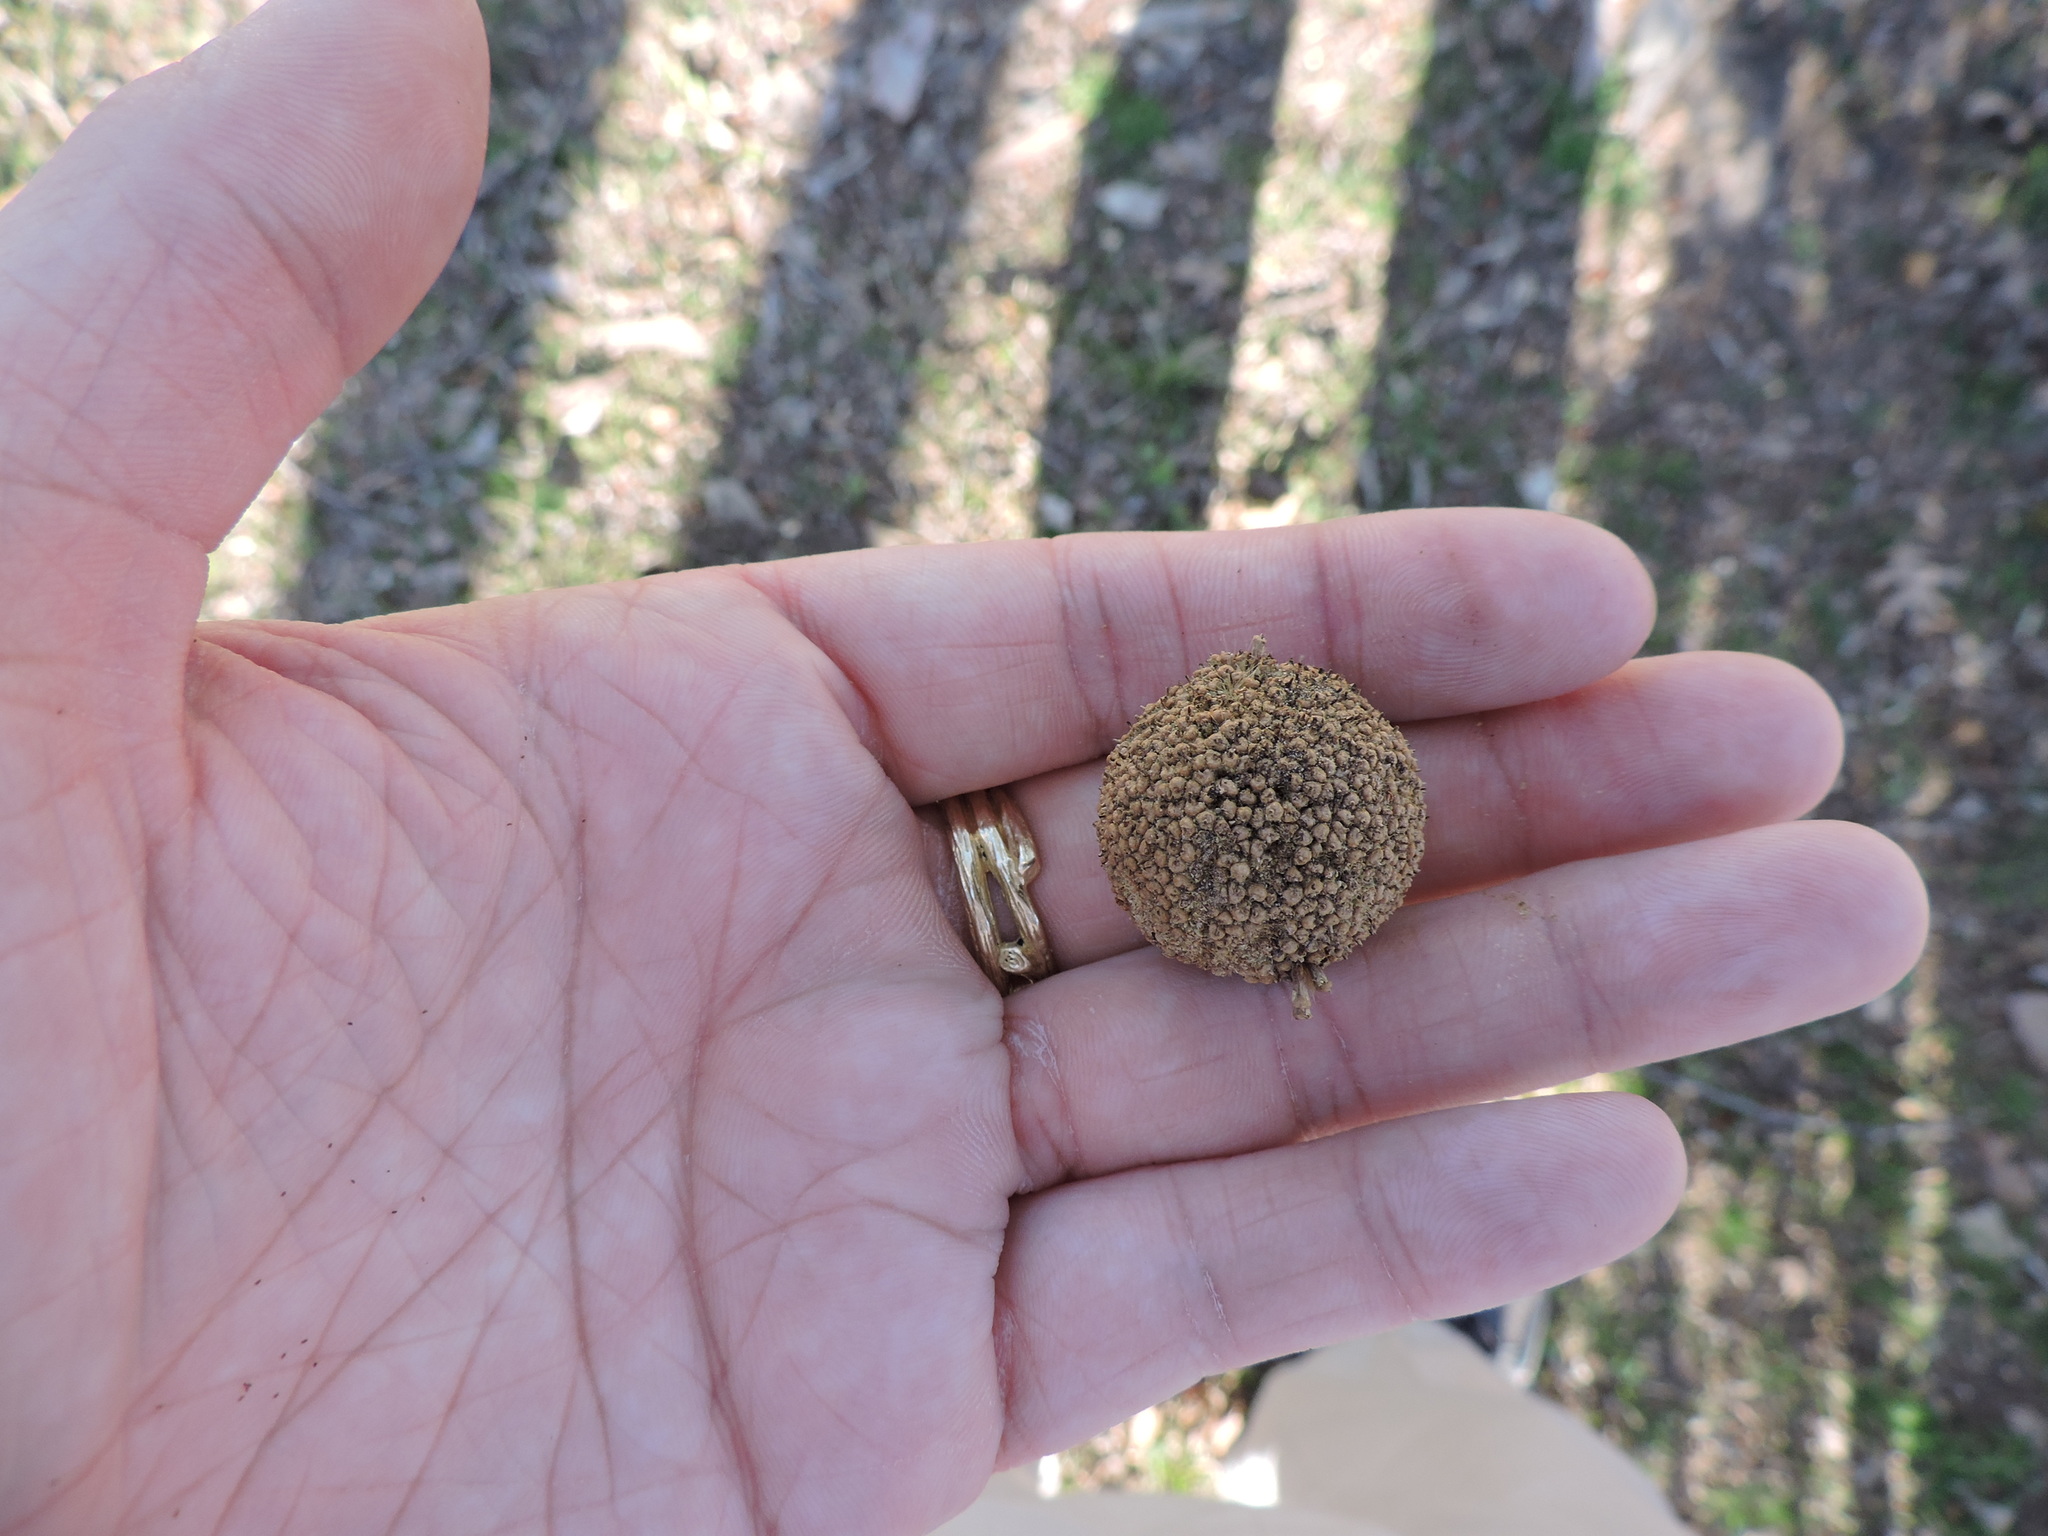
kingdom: Plantae
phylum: Tracheophyta
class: Magnoliopsida
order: Proteales
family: Platanaceae
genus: Platanus
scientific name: Platanus occidentalis
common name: American sycamore
